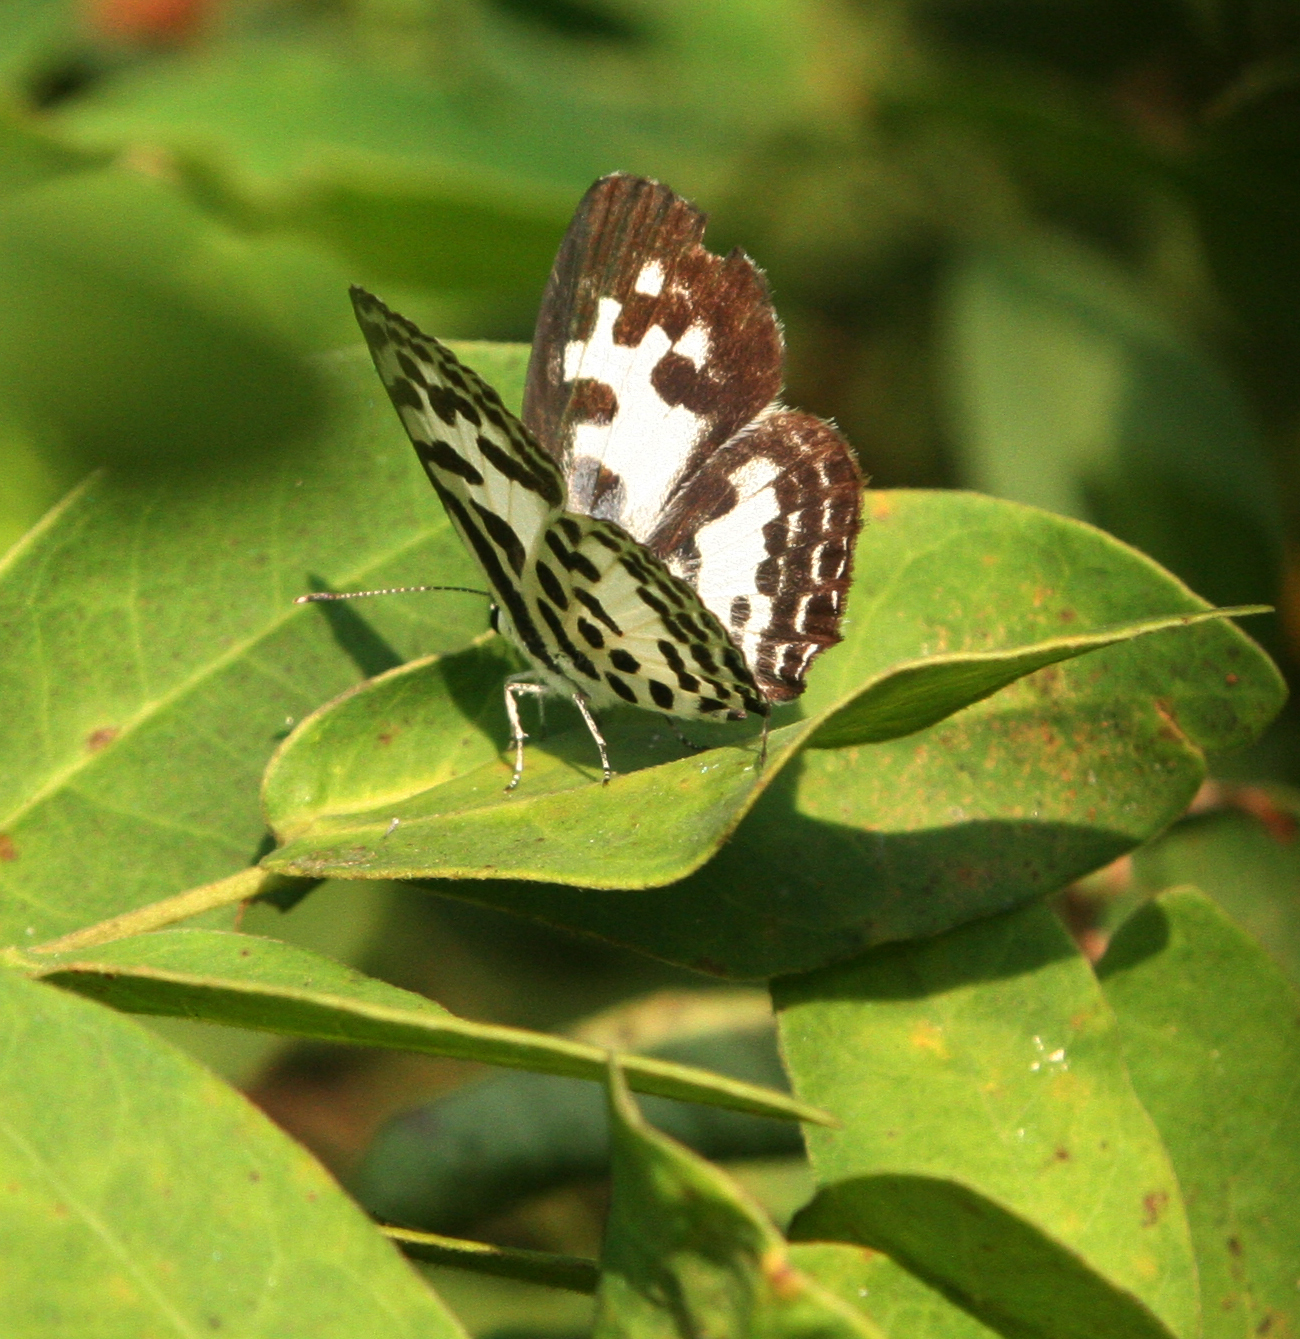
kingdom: Animalia
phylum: Arthropoda
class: Insecta
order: Lepidoptera
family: Lycaenidae
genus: Castalius
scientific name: Castalius rosimon
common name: Common pierrot
